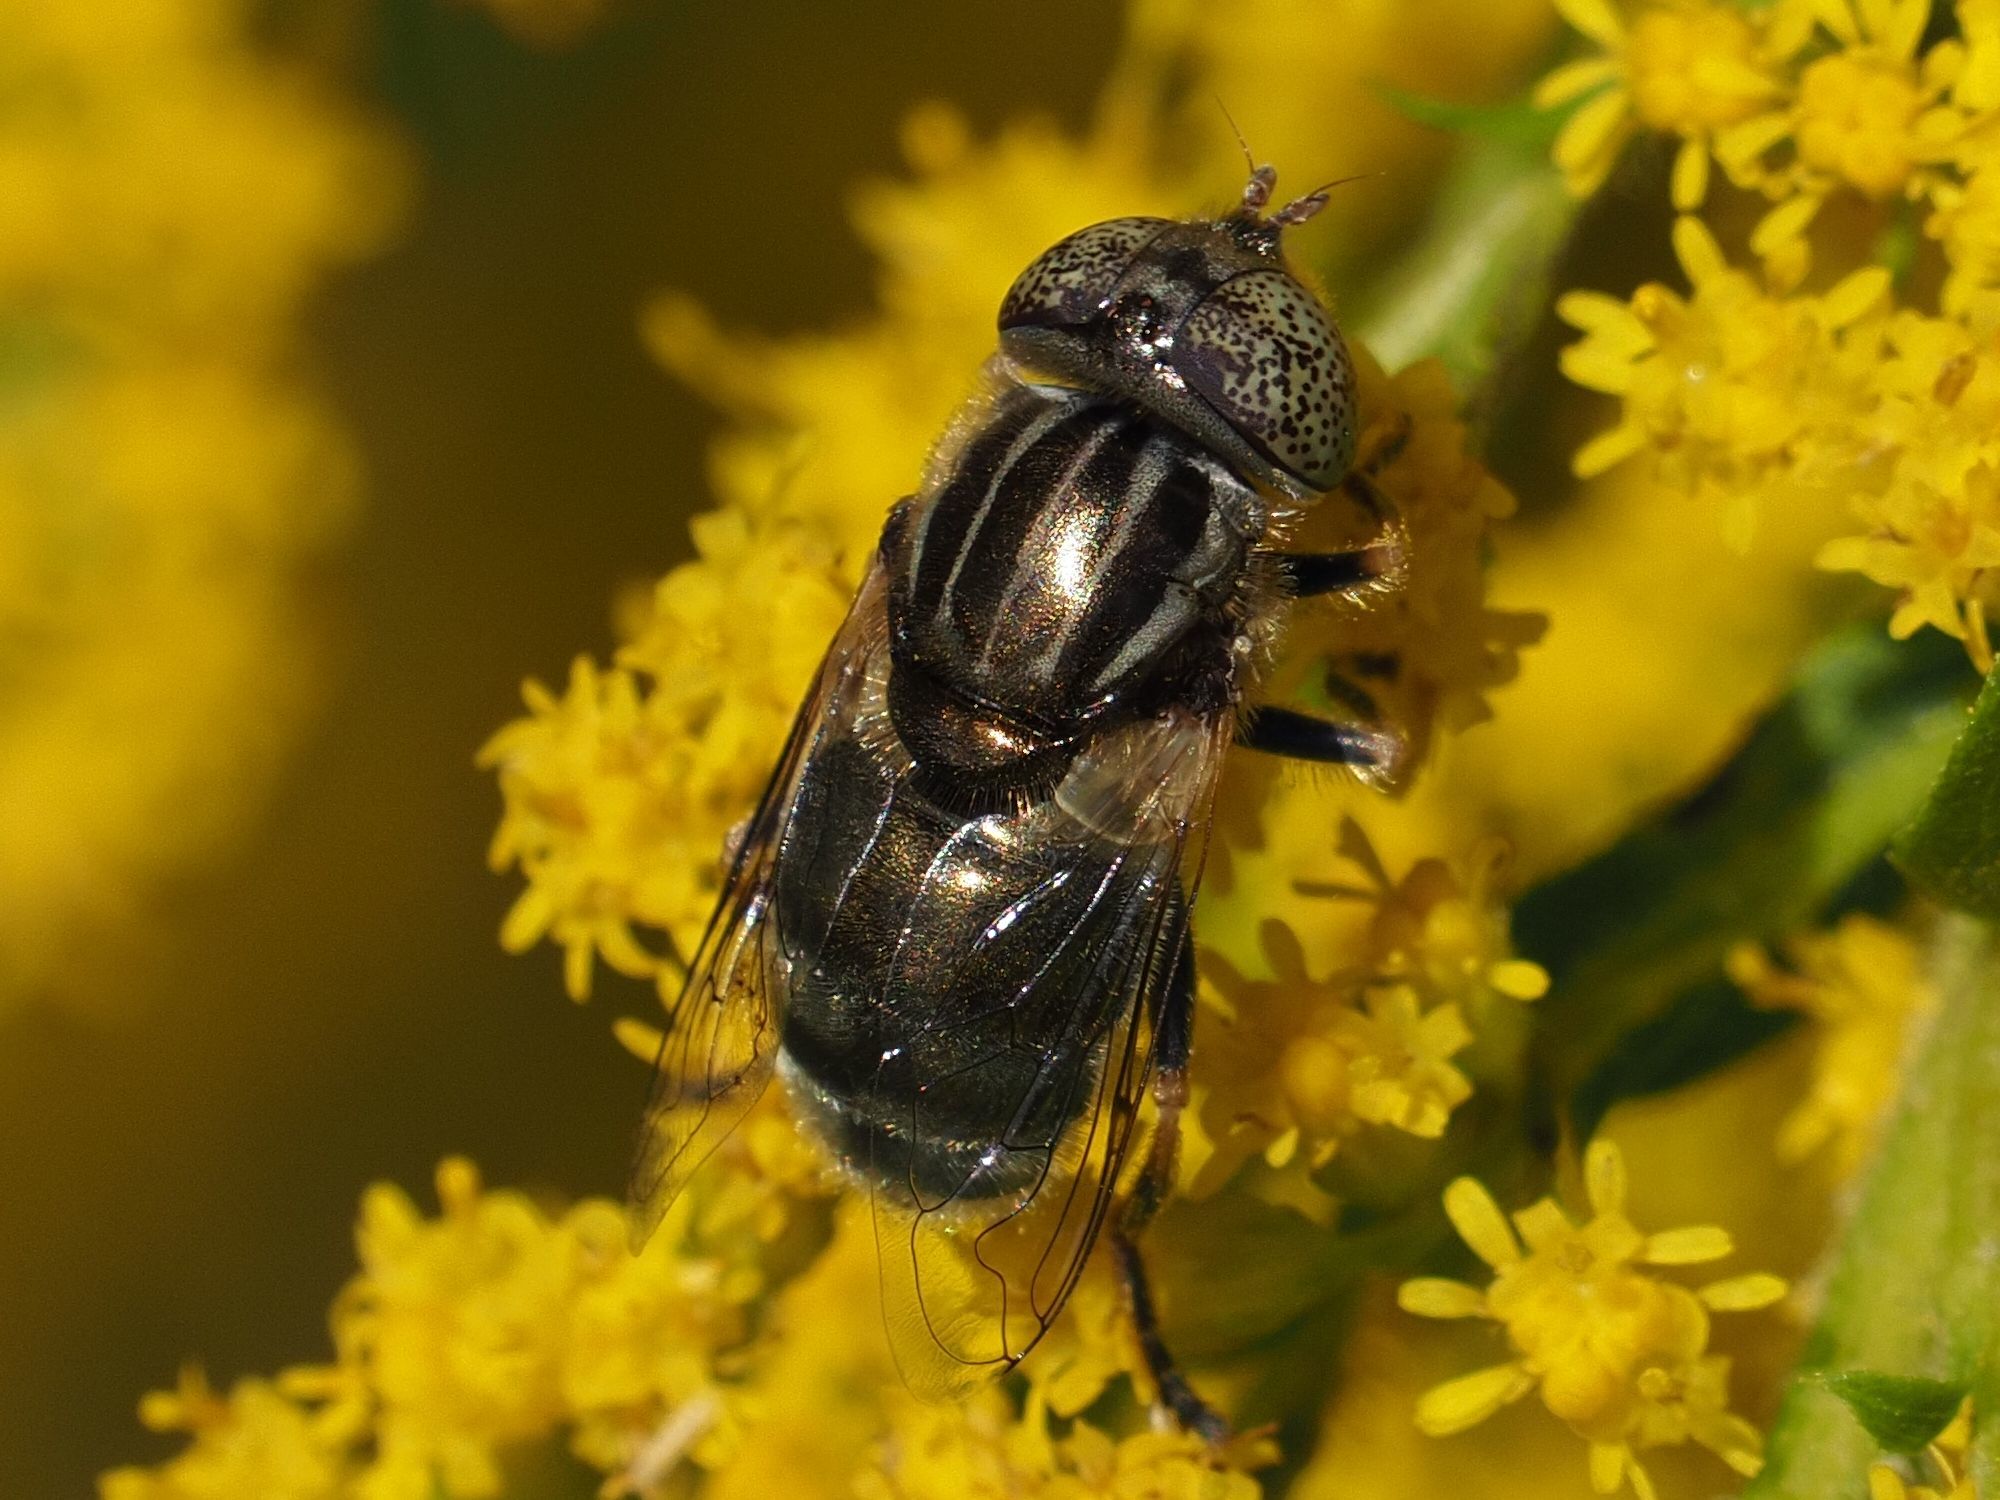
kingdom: Animalia
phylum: Arthropoda
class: Insecta
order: Diptera
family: Syrphidae
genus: Eristalinus
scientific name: Eristalinus aeneus
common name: Syrphid fly
